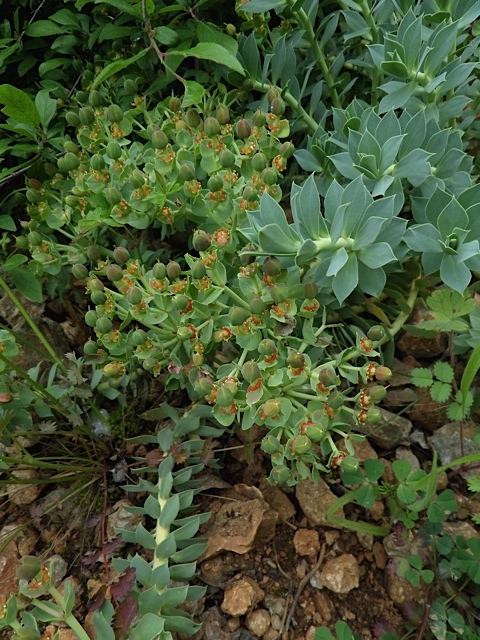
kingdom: Plantae
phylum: Tracheophyta
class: Magnoliopsida
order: Malpighiales
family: Euphorbiaceae
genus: Euphorbia
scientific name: Euphorbia myrsinites
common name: Myrtle spurge
